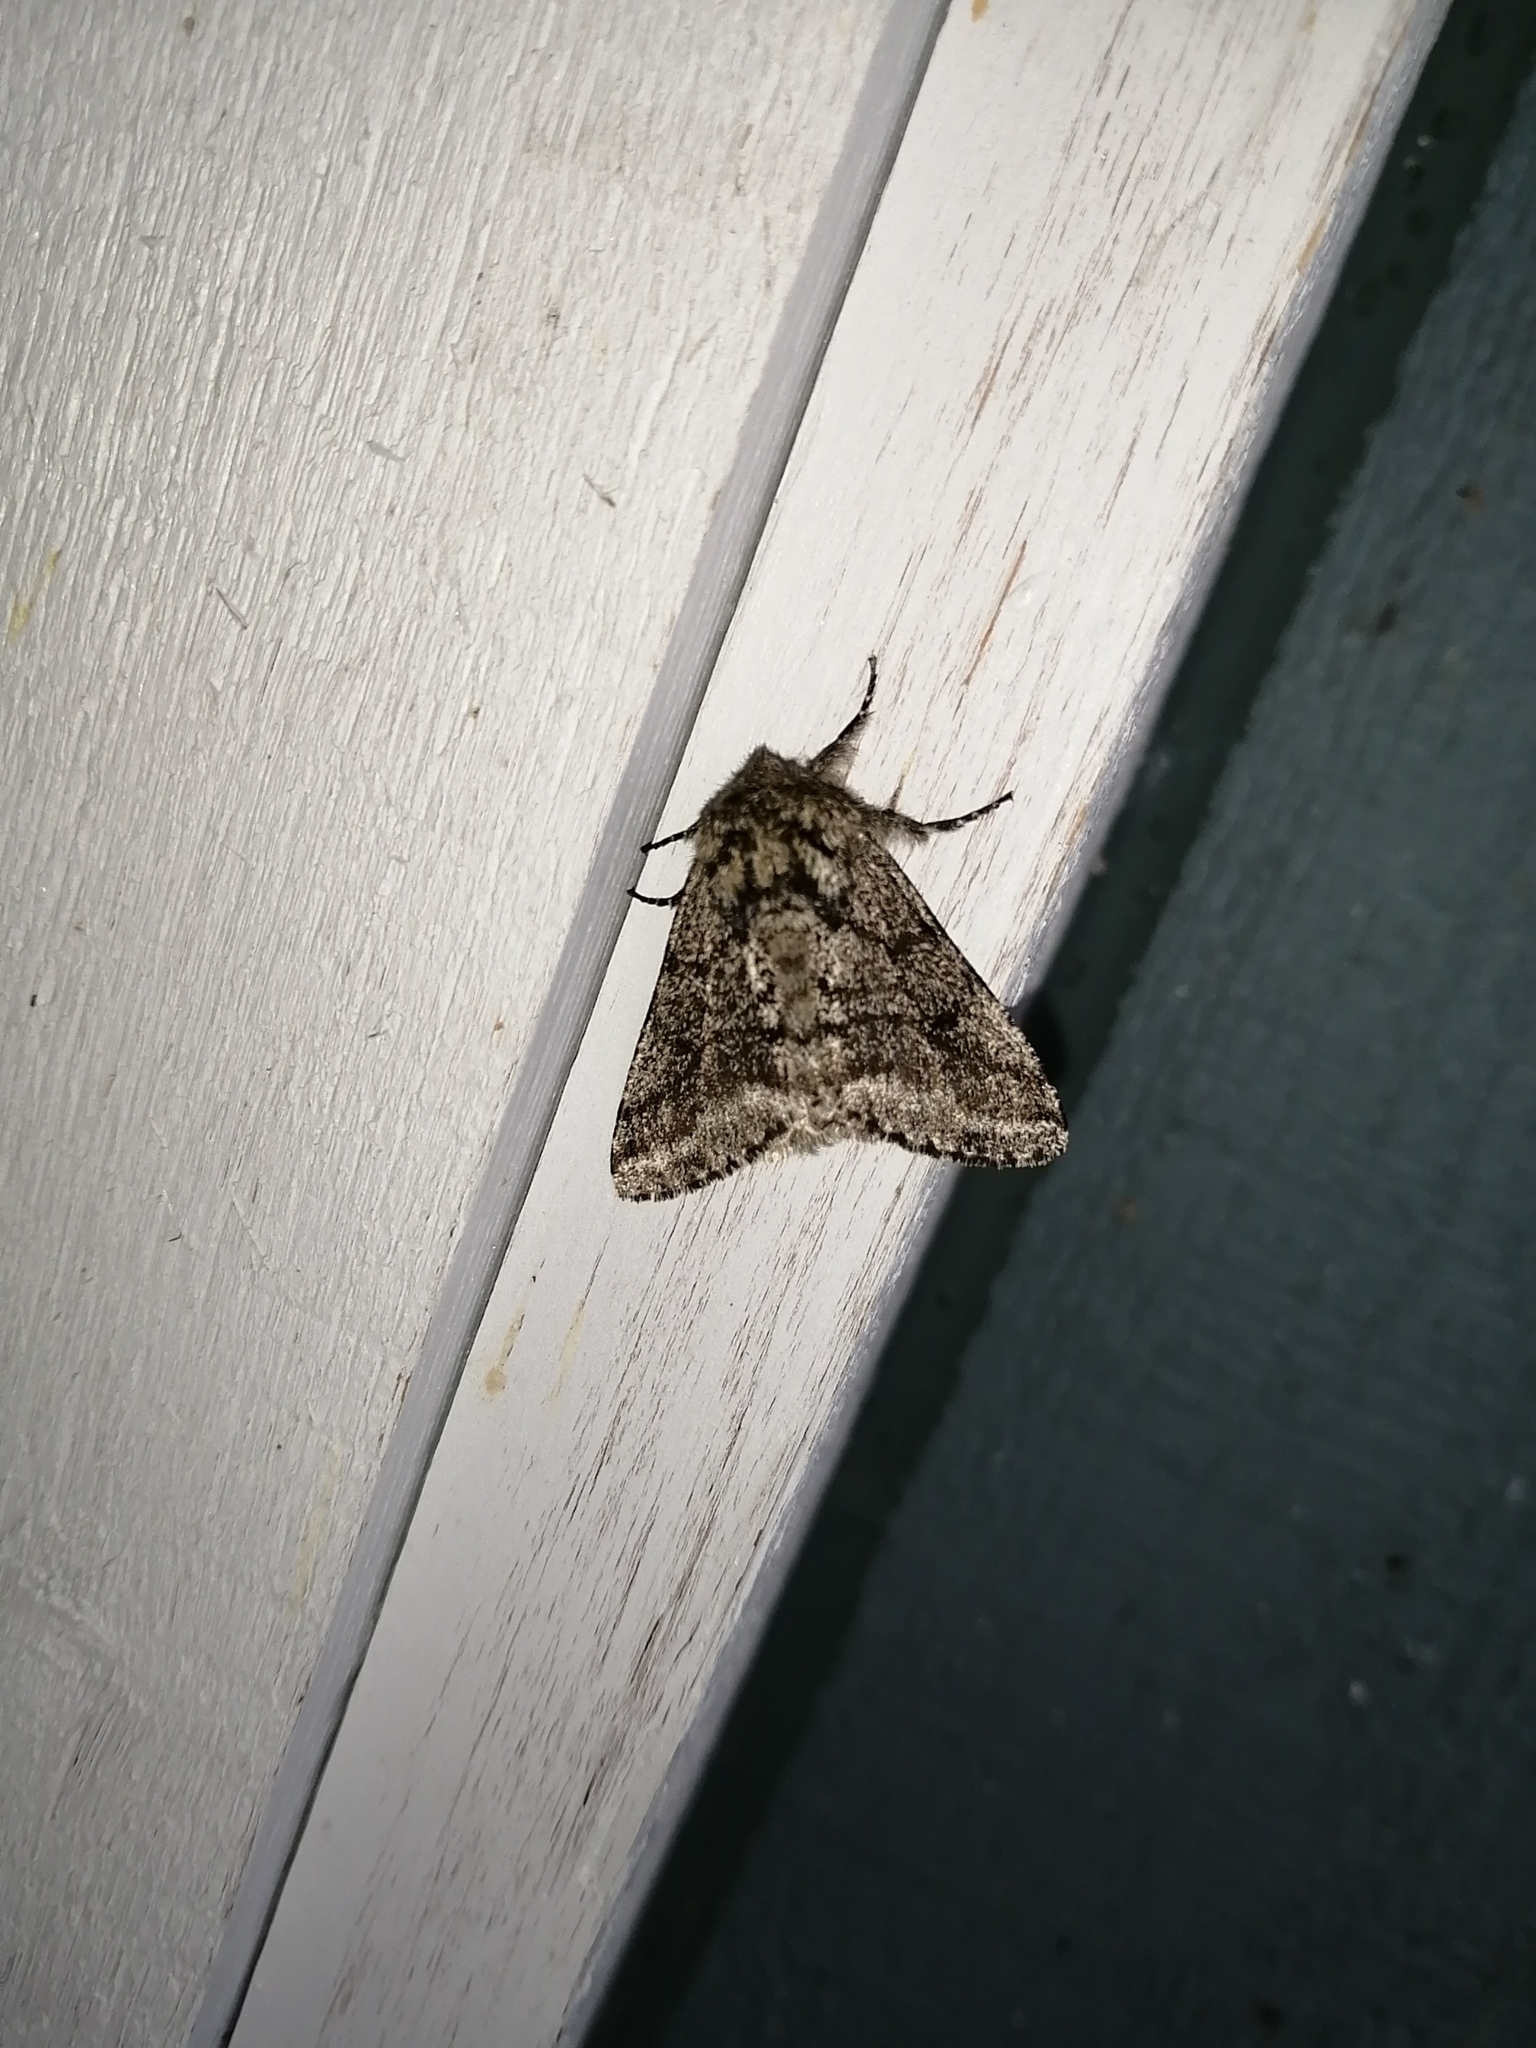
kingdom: Animalia
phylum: Arthropoda
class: Insecta
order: Lepidoptera
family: Geometridae
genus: Lycia
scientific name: Lycia ursaria
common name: Stout spanworm
